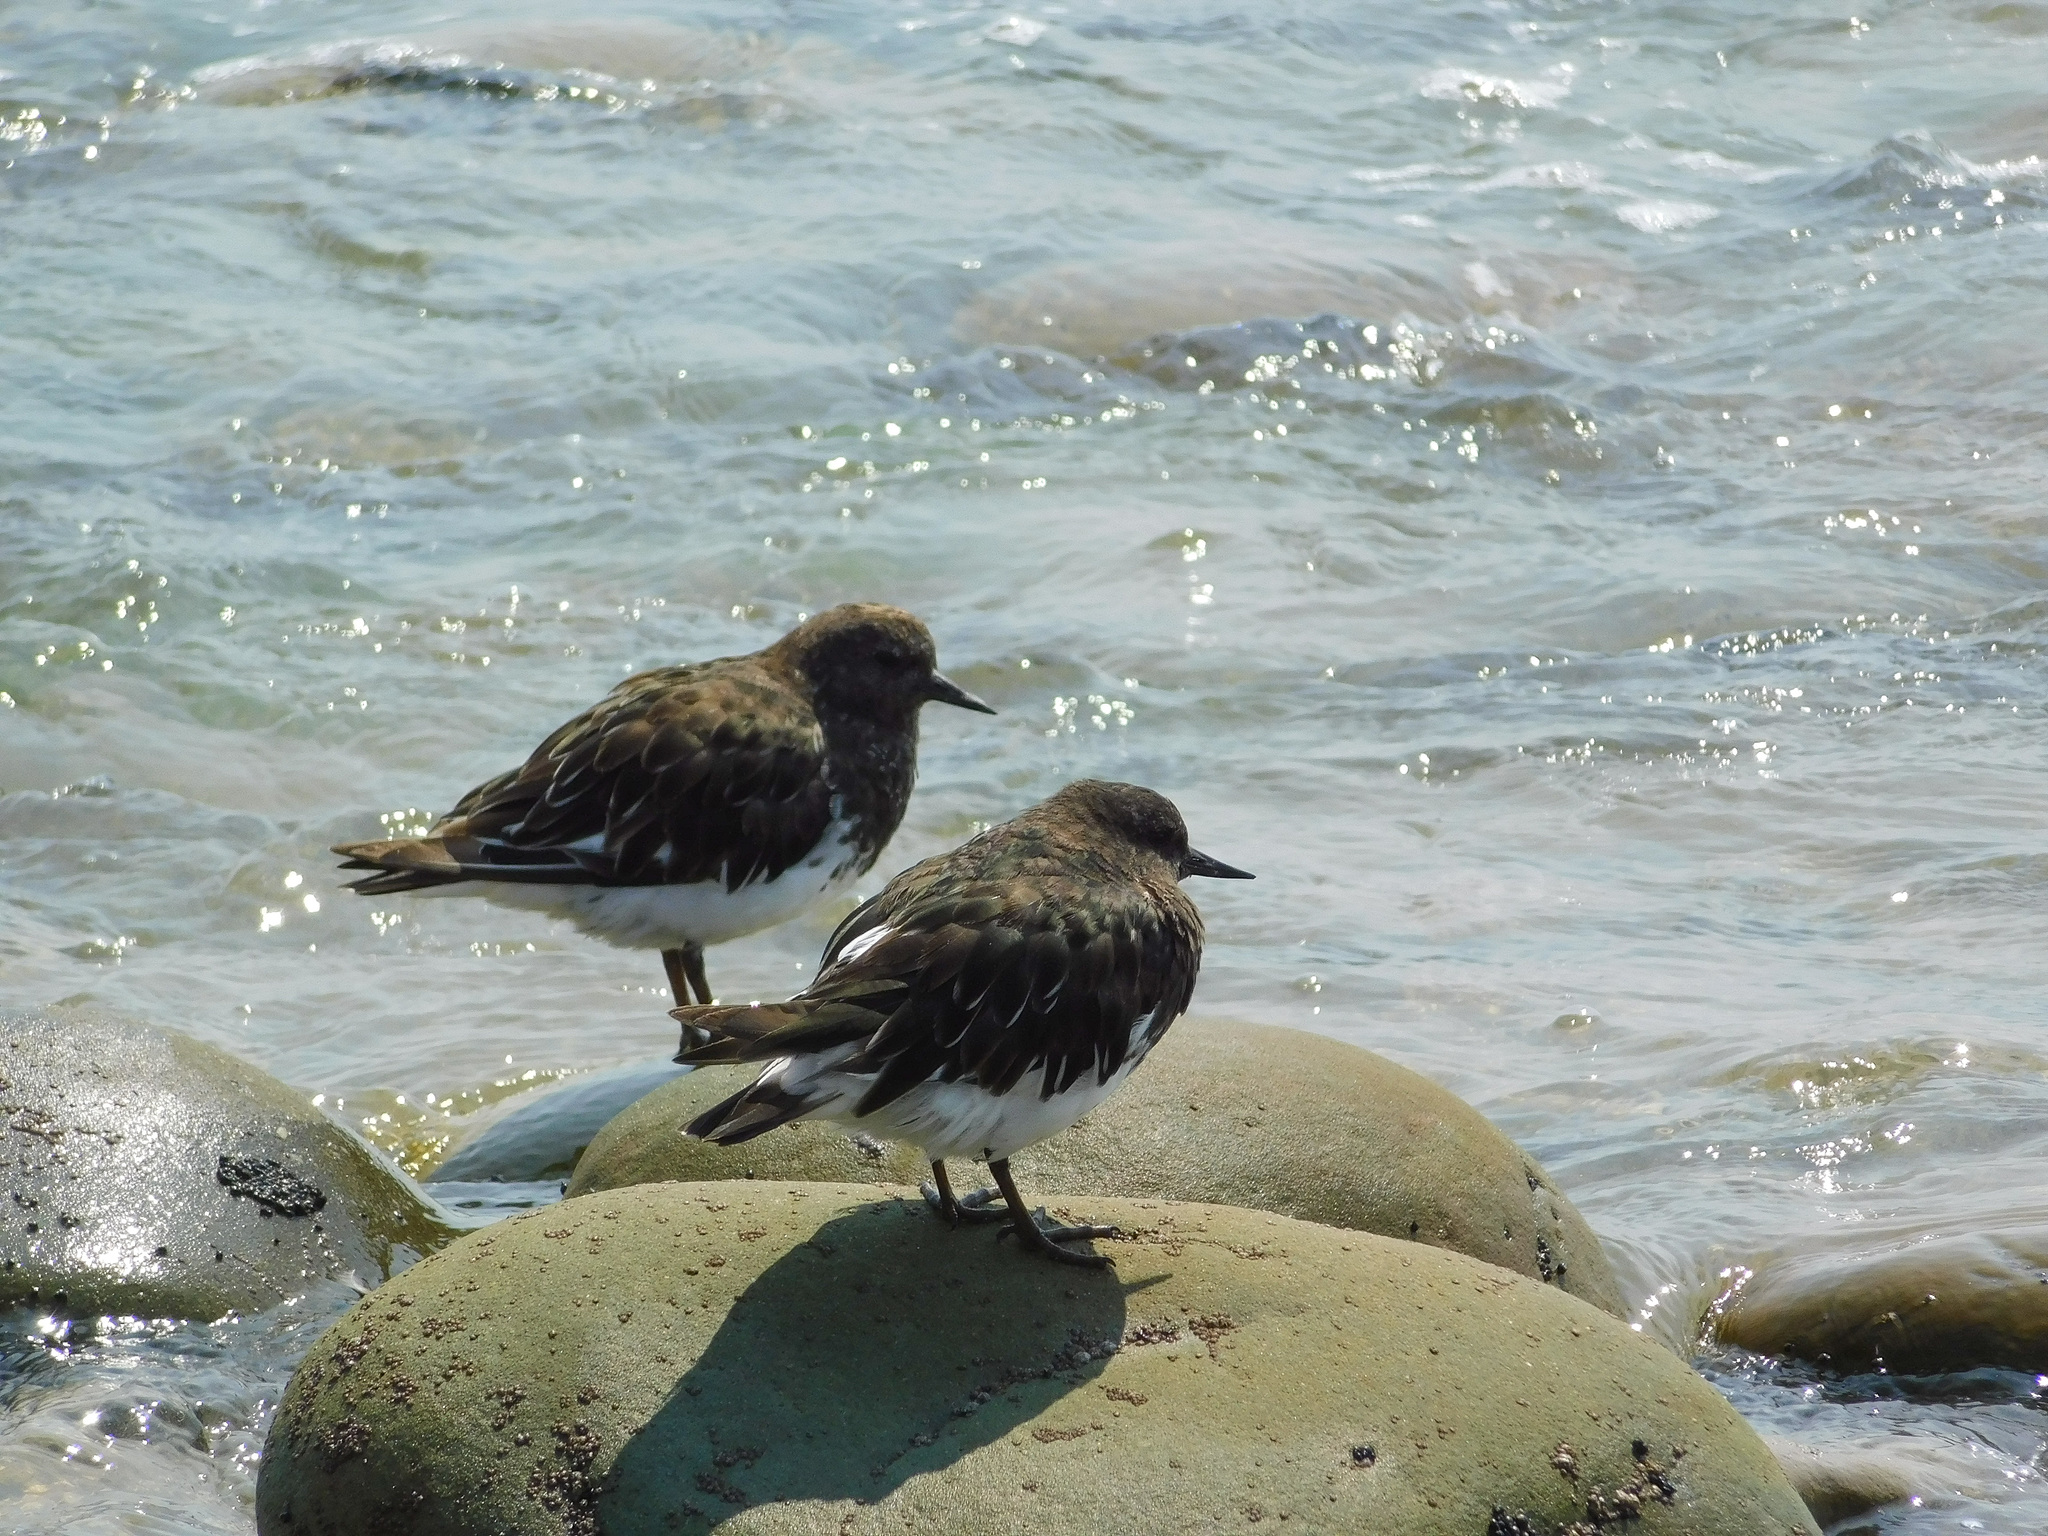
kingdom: Animalia
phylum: Chordata
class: Aves
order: Charadriiformes
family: Scolopacidae
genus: Arenaria
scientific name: Arenaria melanocephala
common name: Black turnstone
